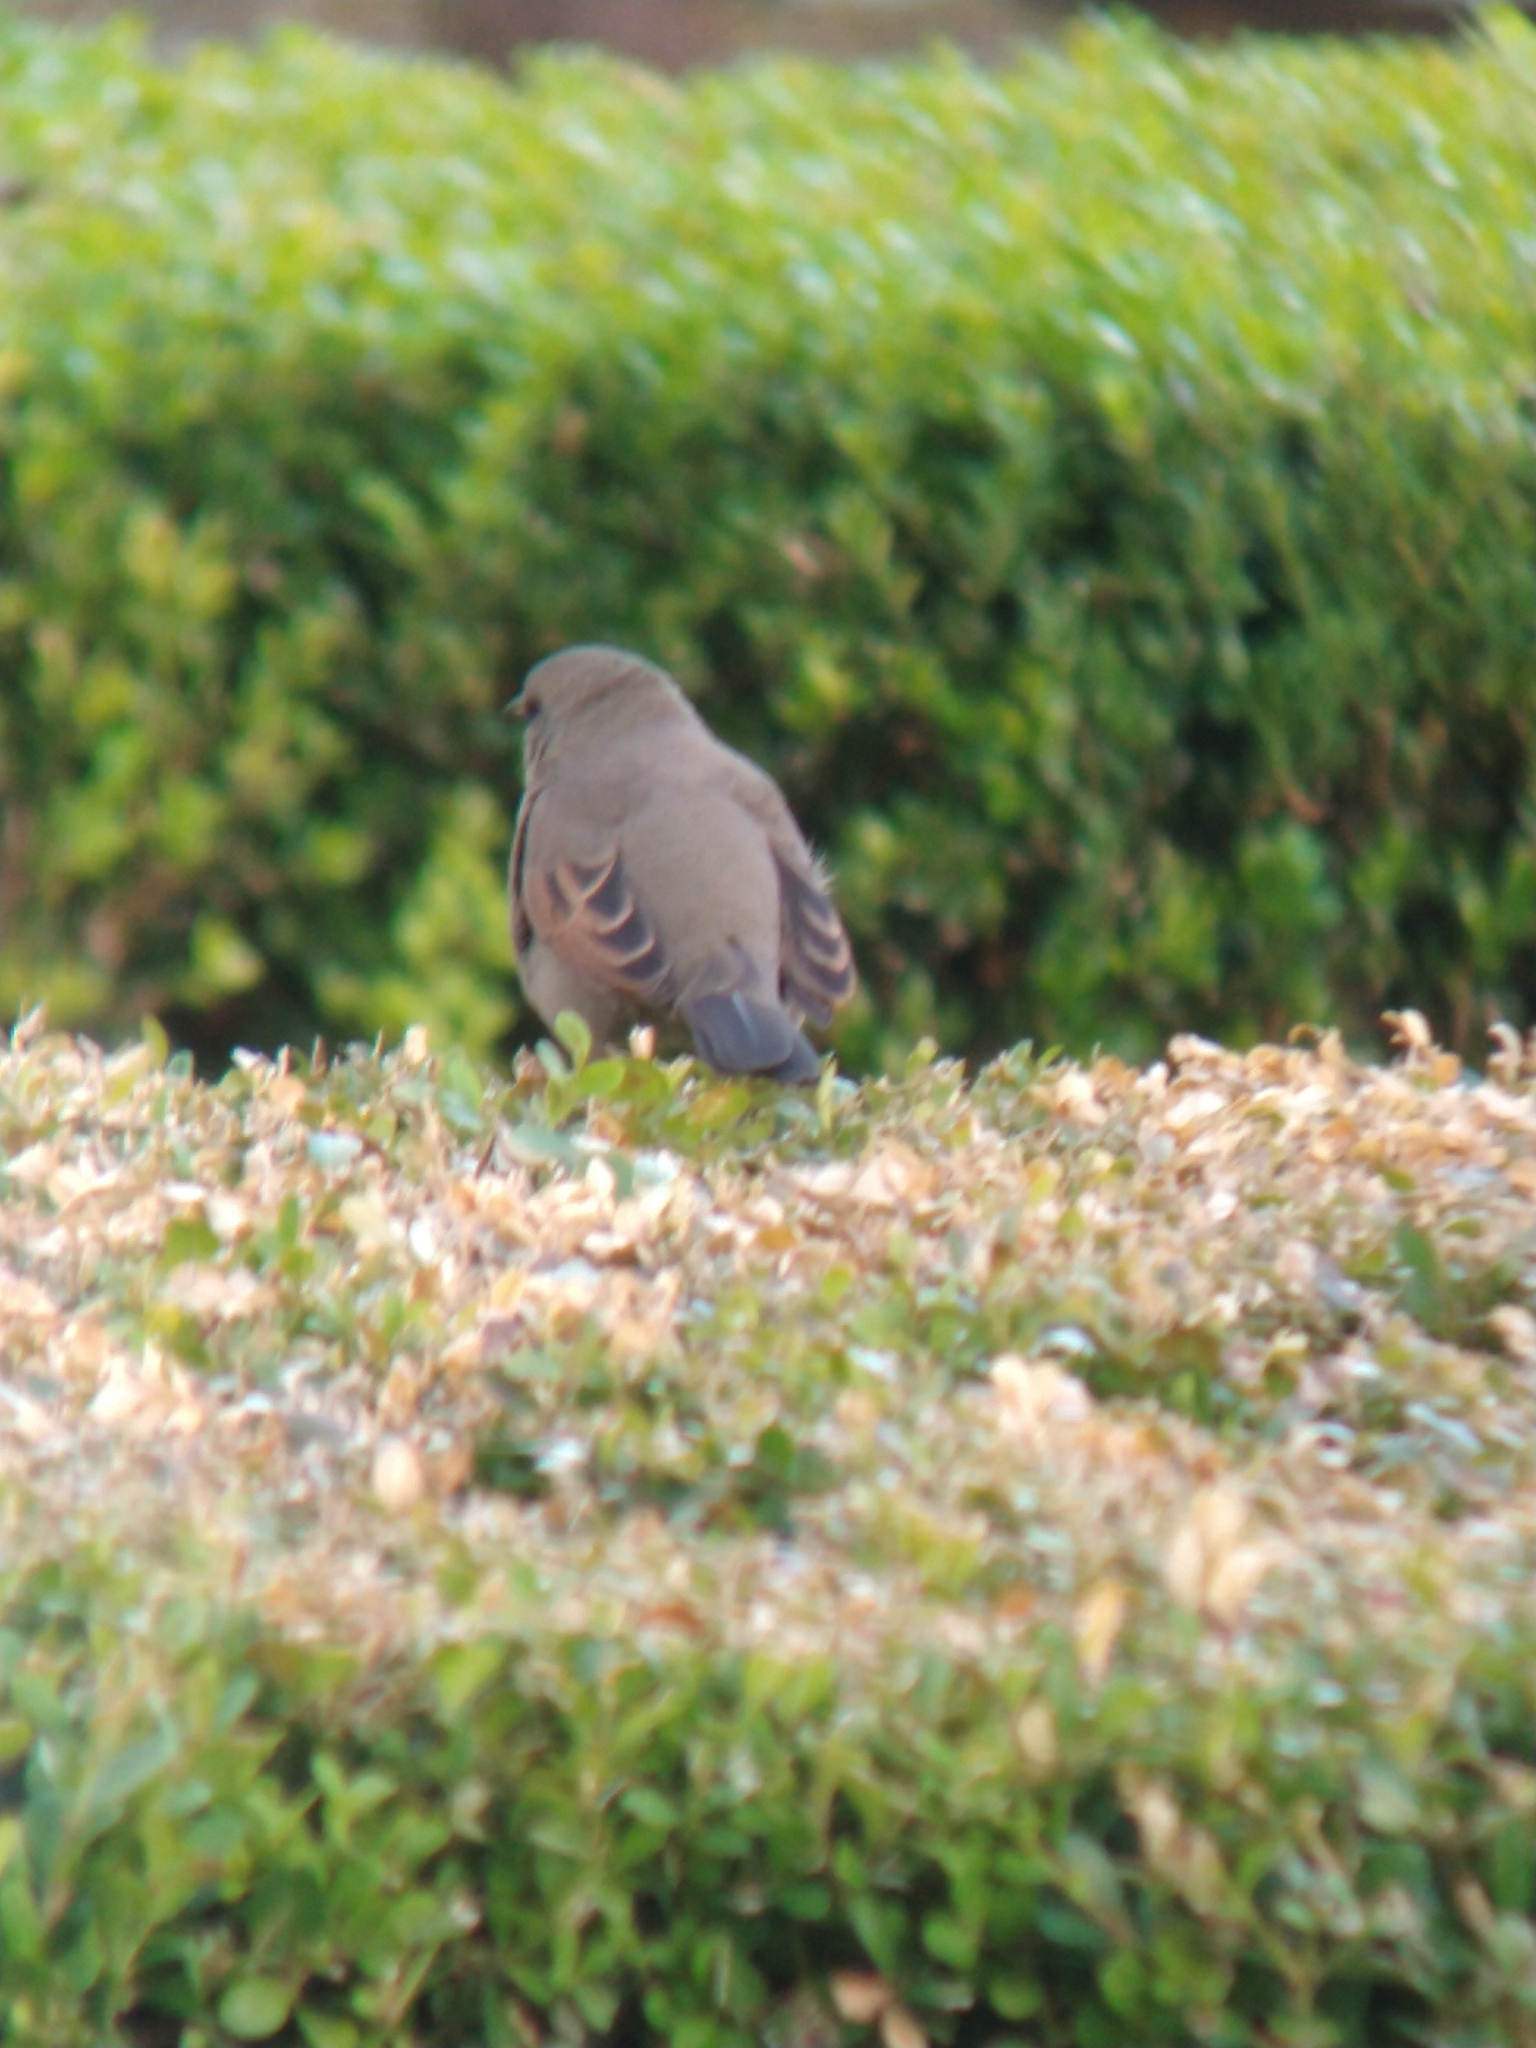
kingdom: Animalia
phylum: Chordata
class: Aves
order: Passeriformes
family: Icteridae
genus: Agelaioides
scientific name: Agelaioides badius
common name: Baywing
